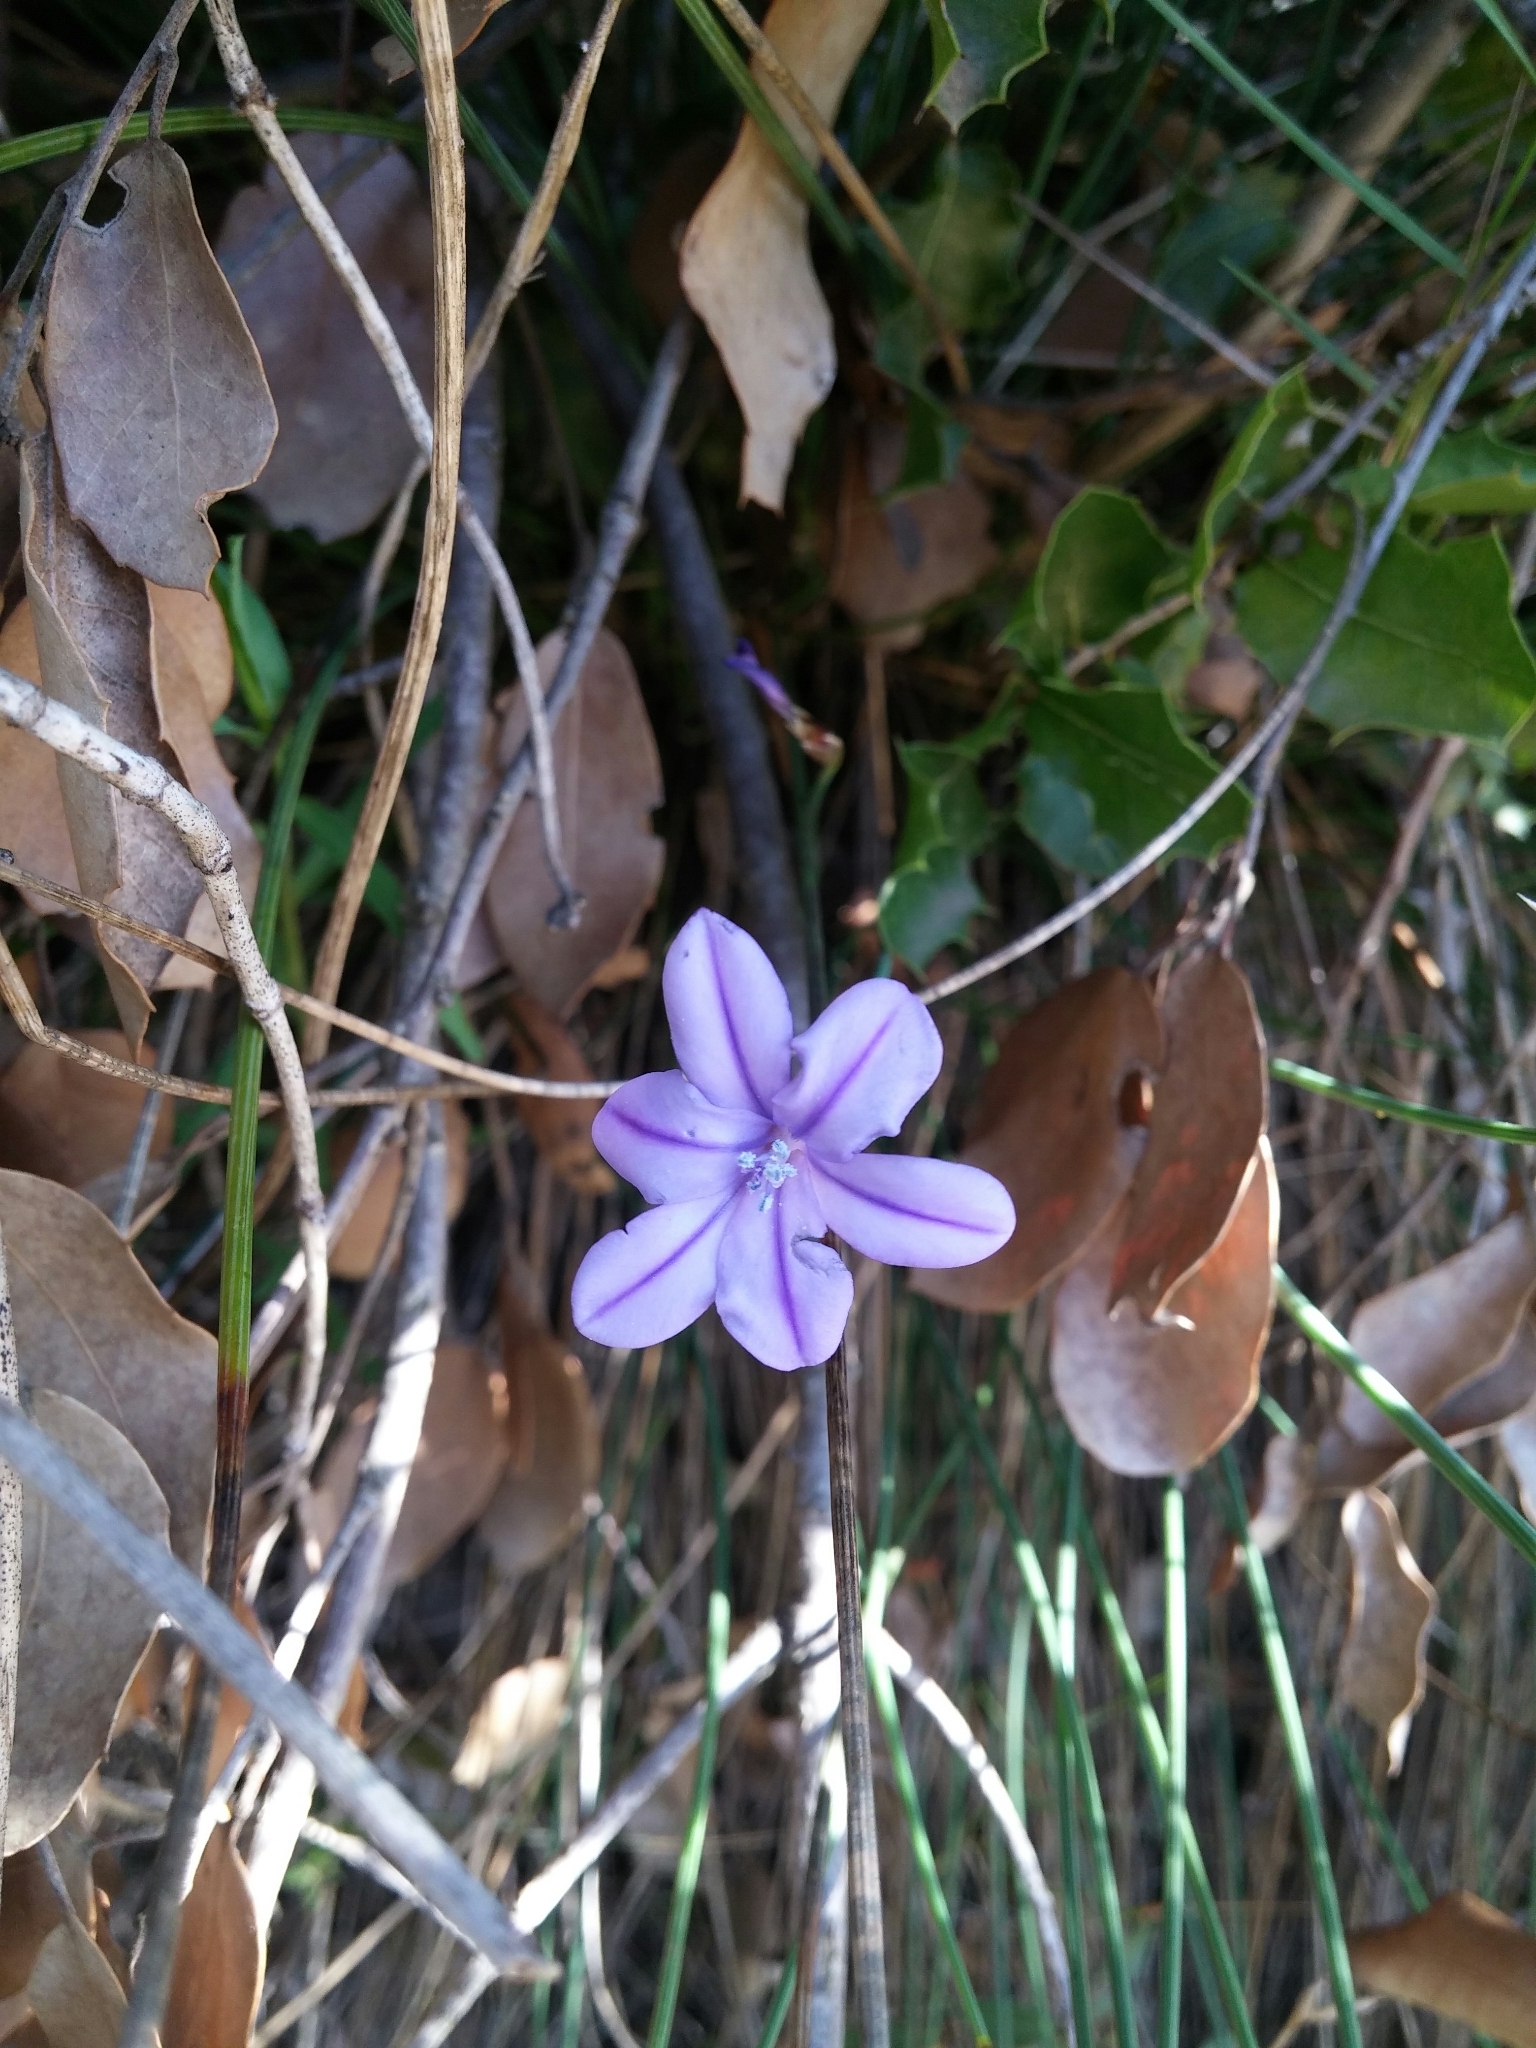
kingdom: Plantae
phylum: Tracheophyta
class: Liliopsida
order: Asparagales
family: Asparagaceae
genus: Aphyllanthes
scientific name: Aphyllanthes monspeliensis
